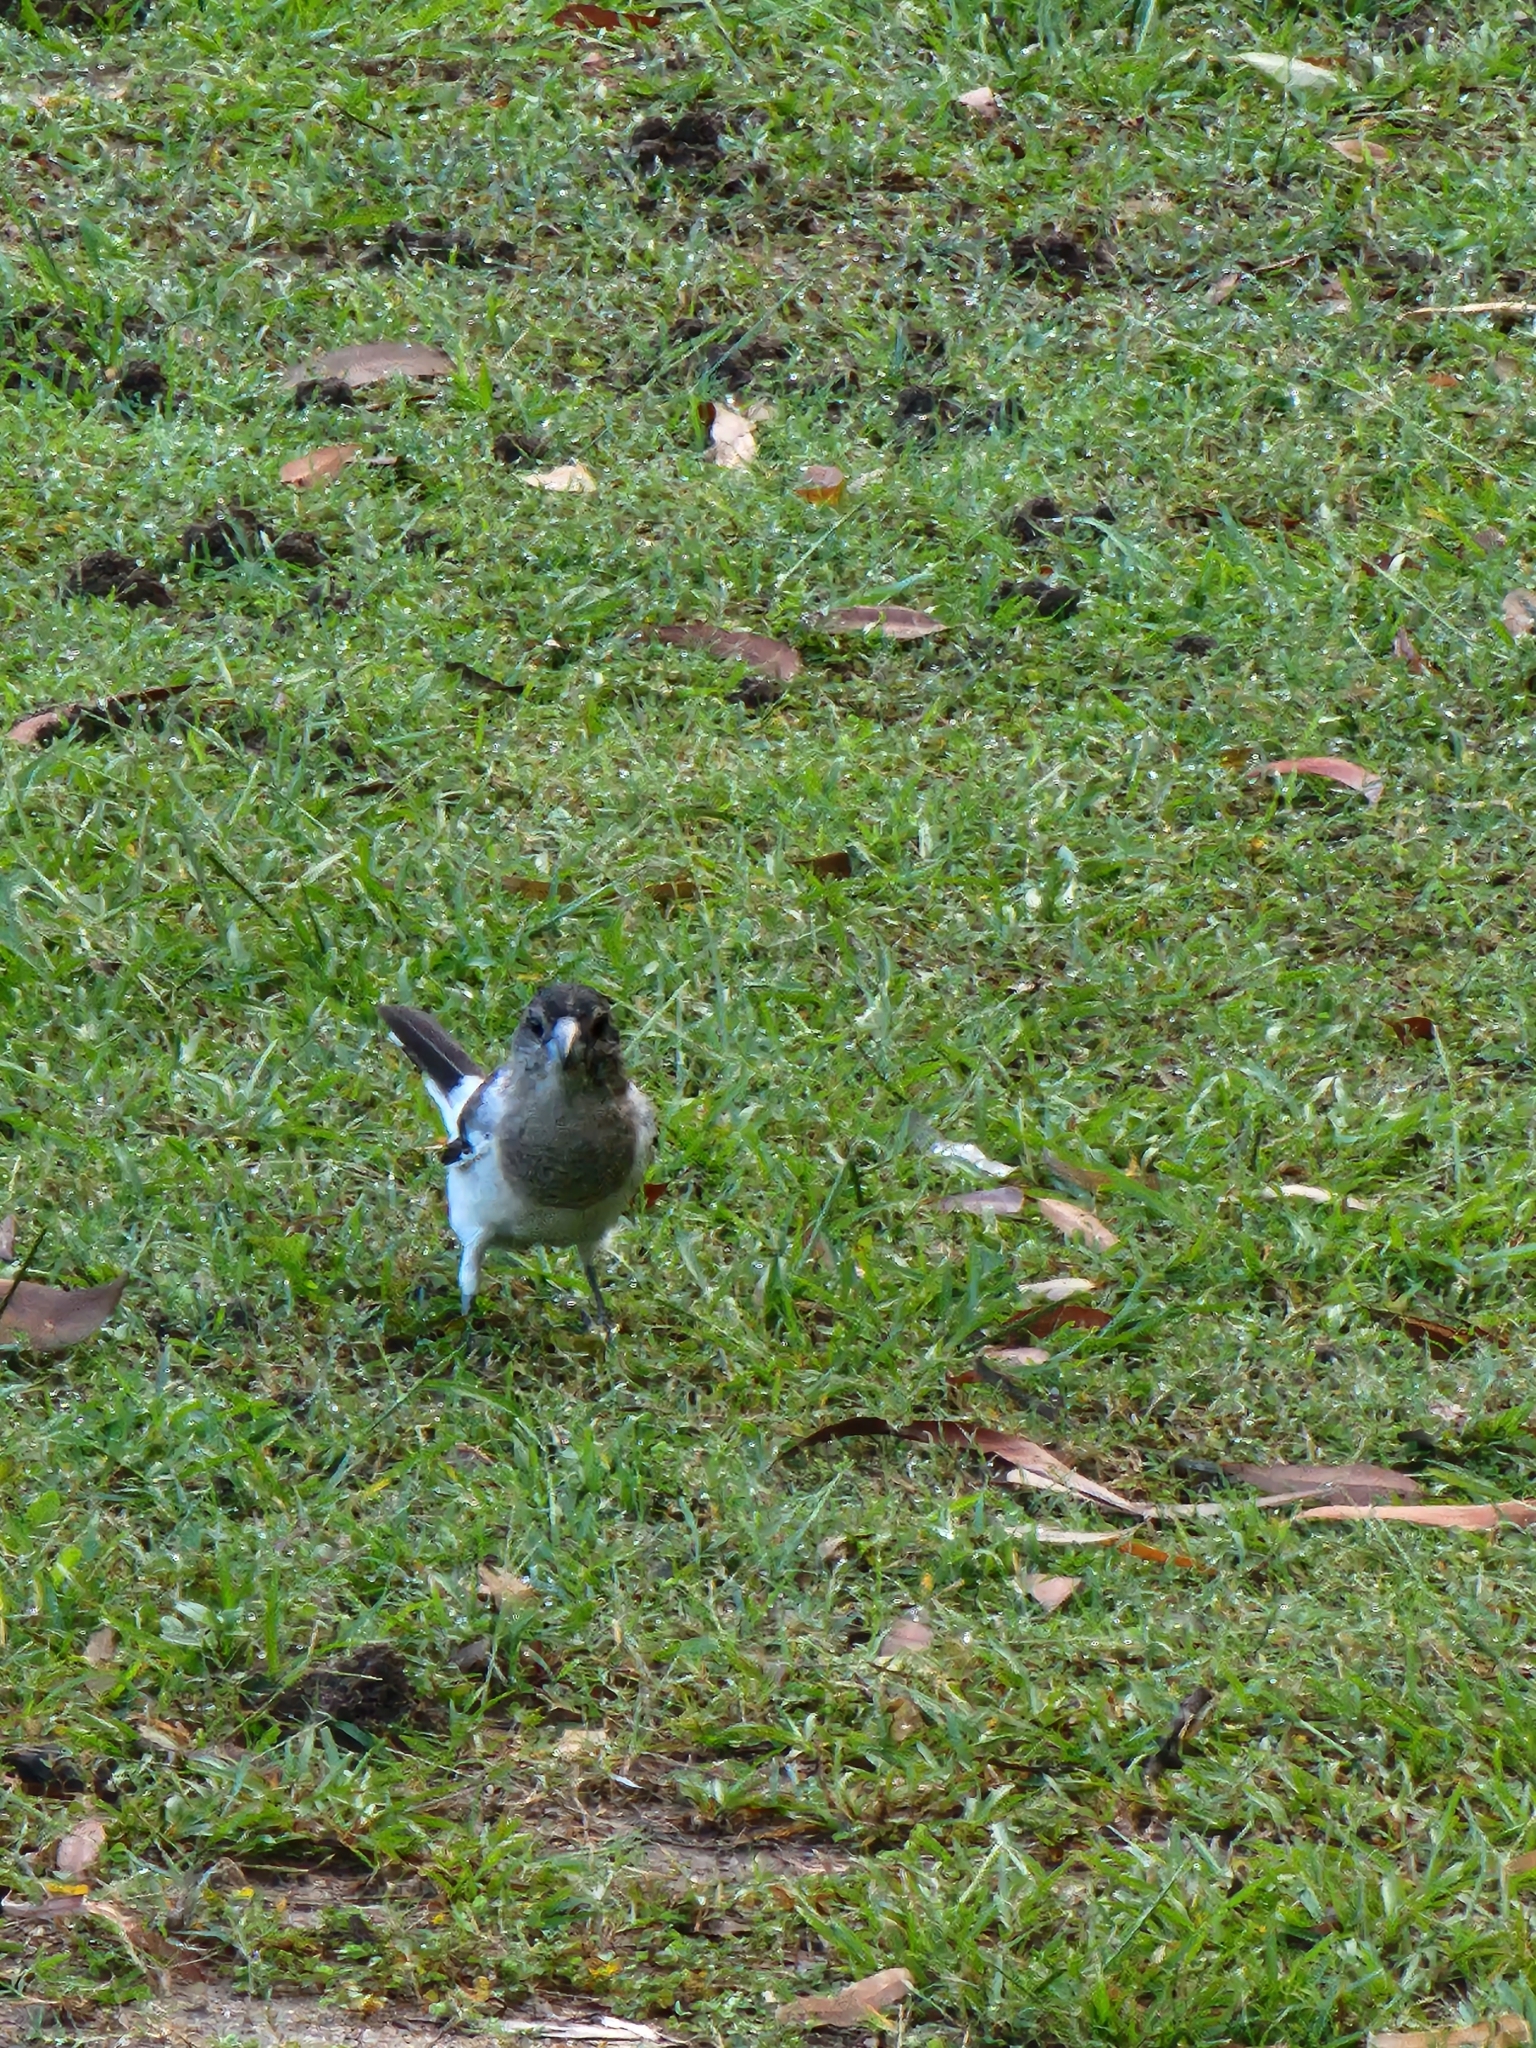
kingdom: Animalia
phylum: Chordata
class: Aves
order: Passeriformes
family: Cracticidae
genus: Cracticus
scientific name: Cracticus nigrogularis
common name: Pied butcherbird
